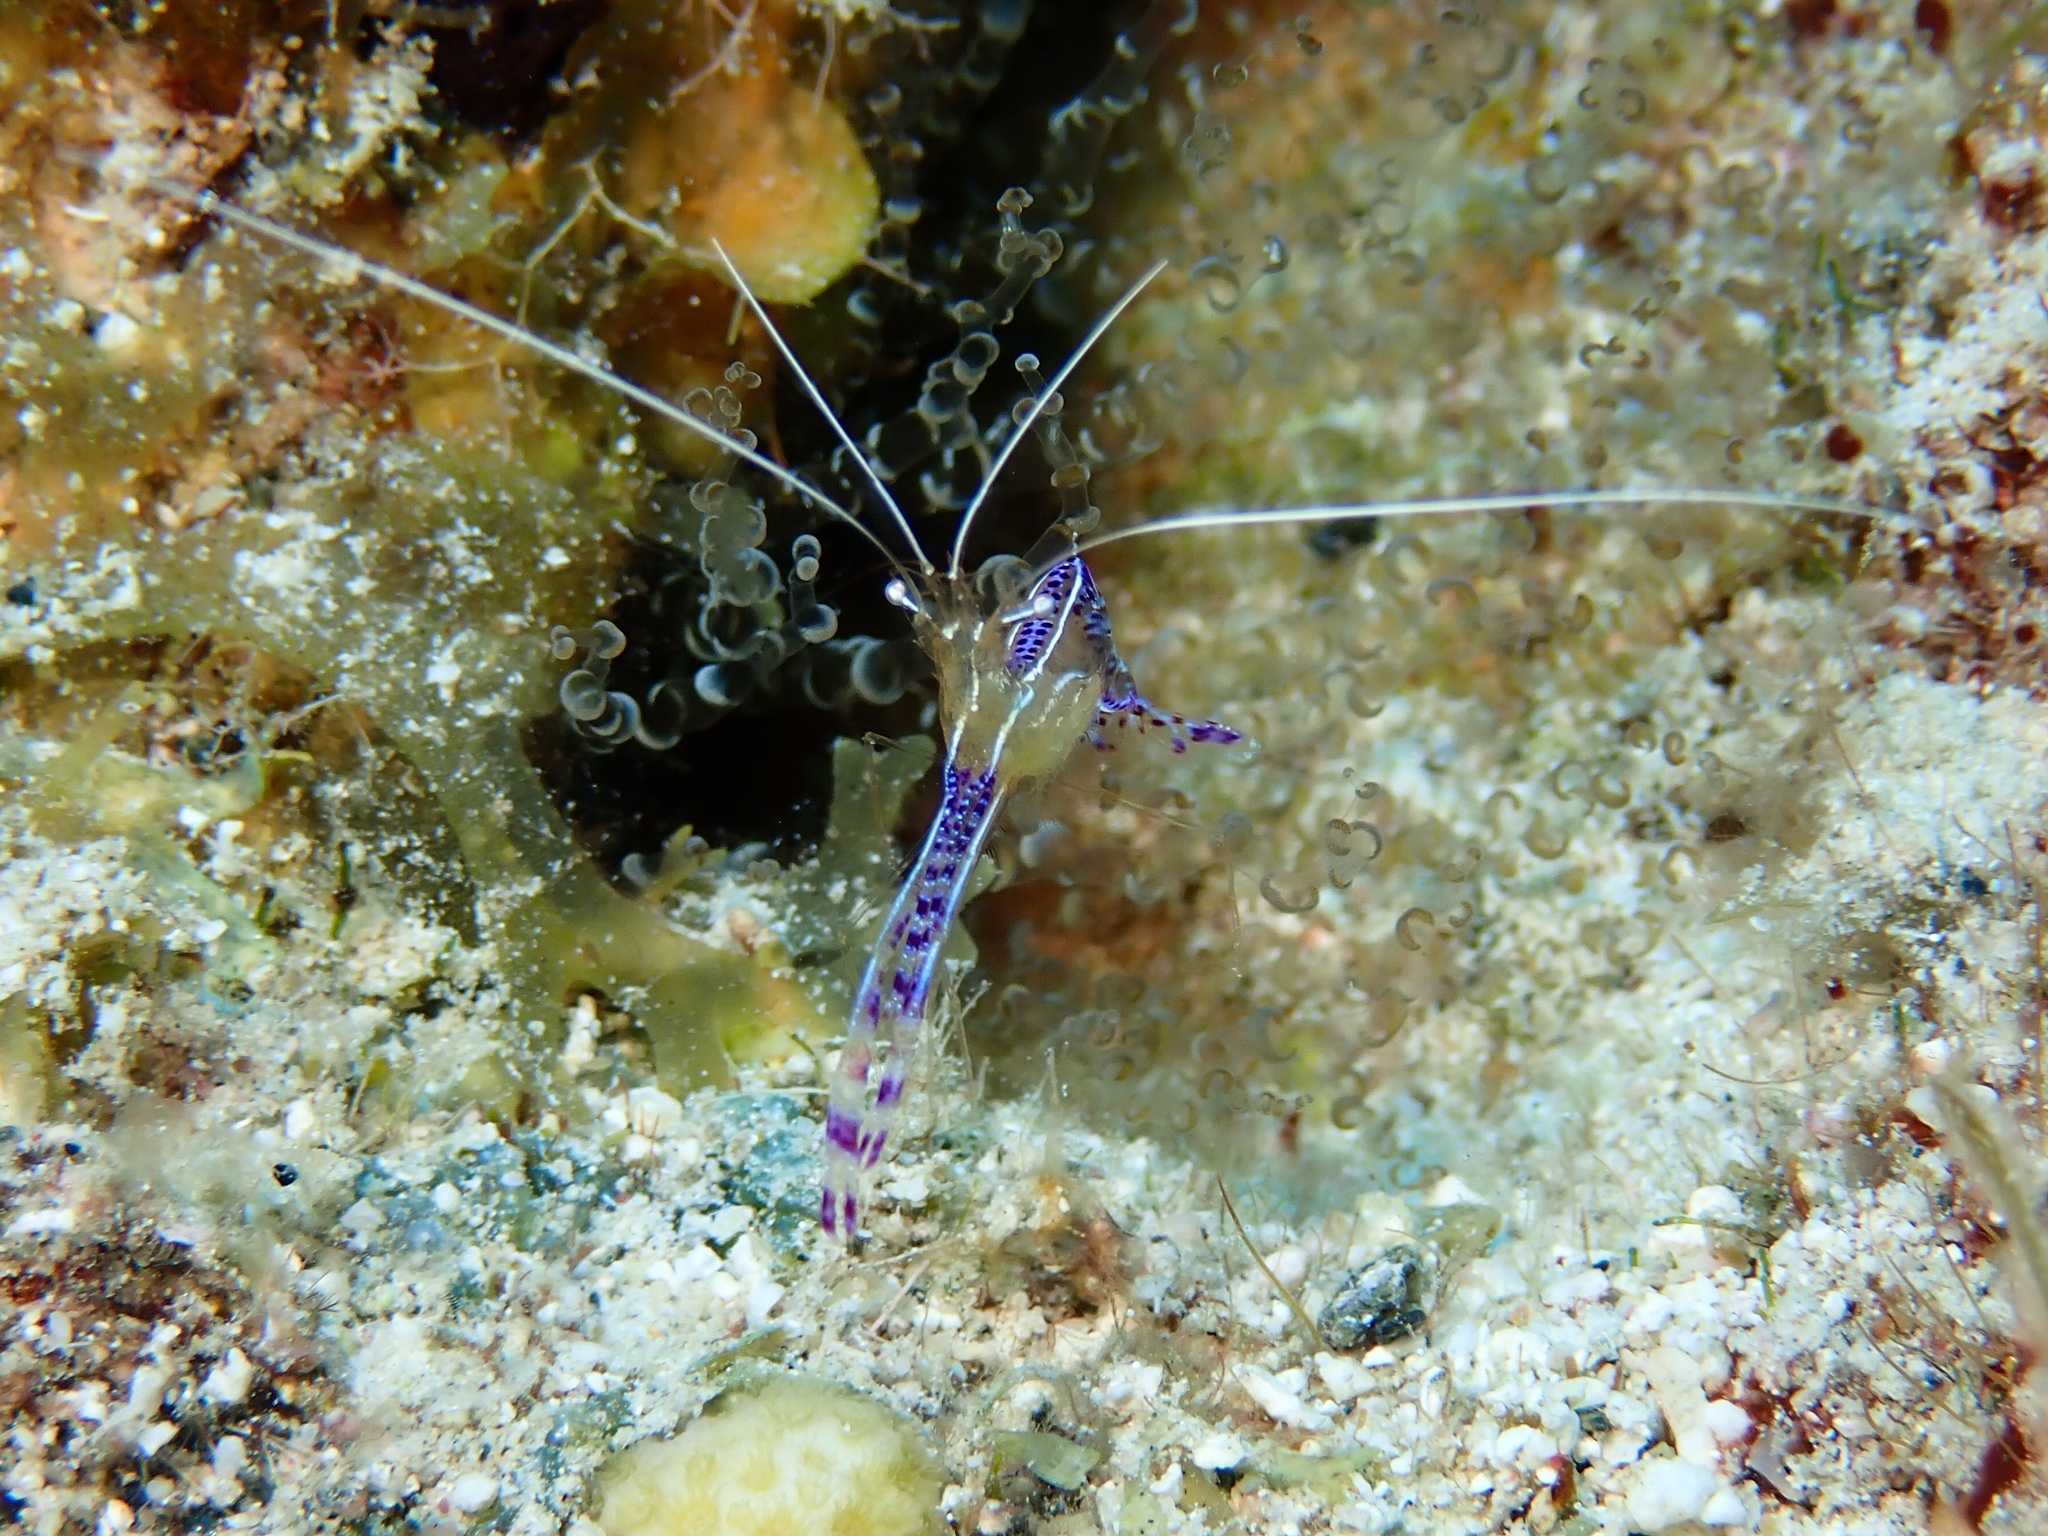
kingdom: Animalia
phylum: Arthropoda
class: Malacostraca
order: Decapoda
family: Palaemonidae
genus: Ancylomenes
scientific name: Ancylomenes pedersoni
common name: Pederson's cleaning shrimp
